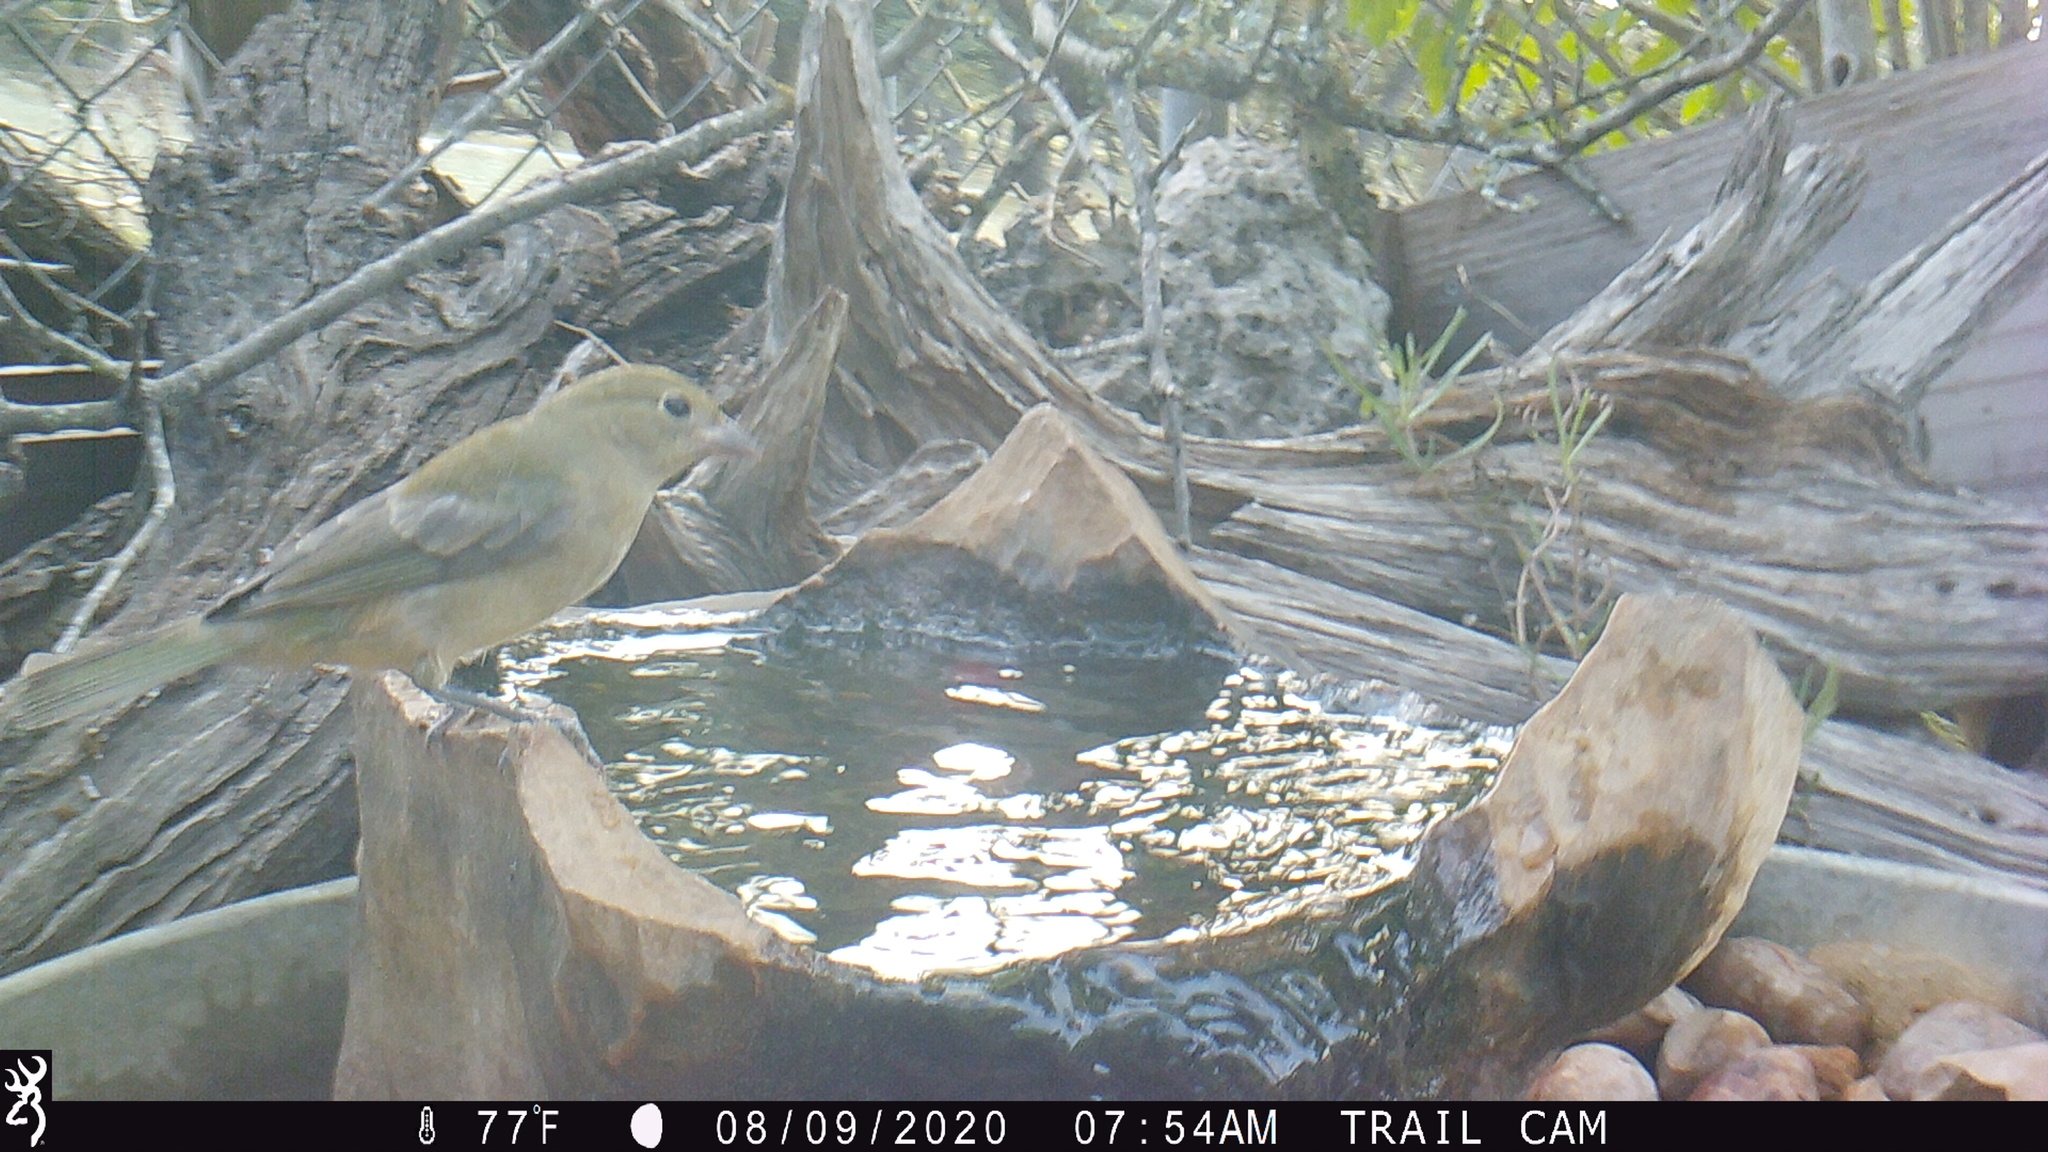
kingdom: Animalia
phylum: Chordata
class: Aves
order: Passeriformes
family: Cardinalidae
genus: Passerina
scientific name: Passerina ciris
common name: Painted bunting
